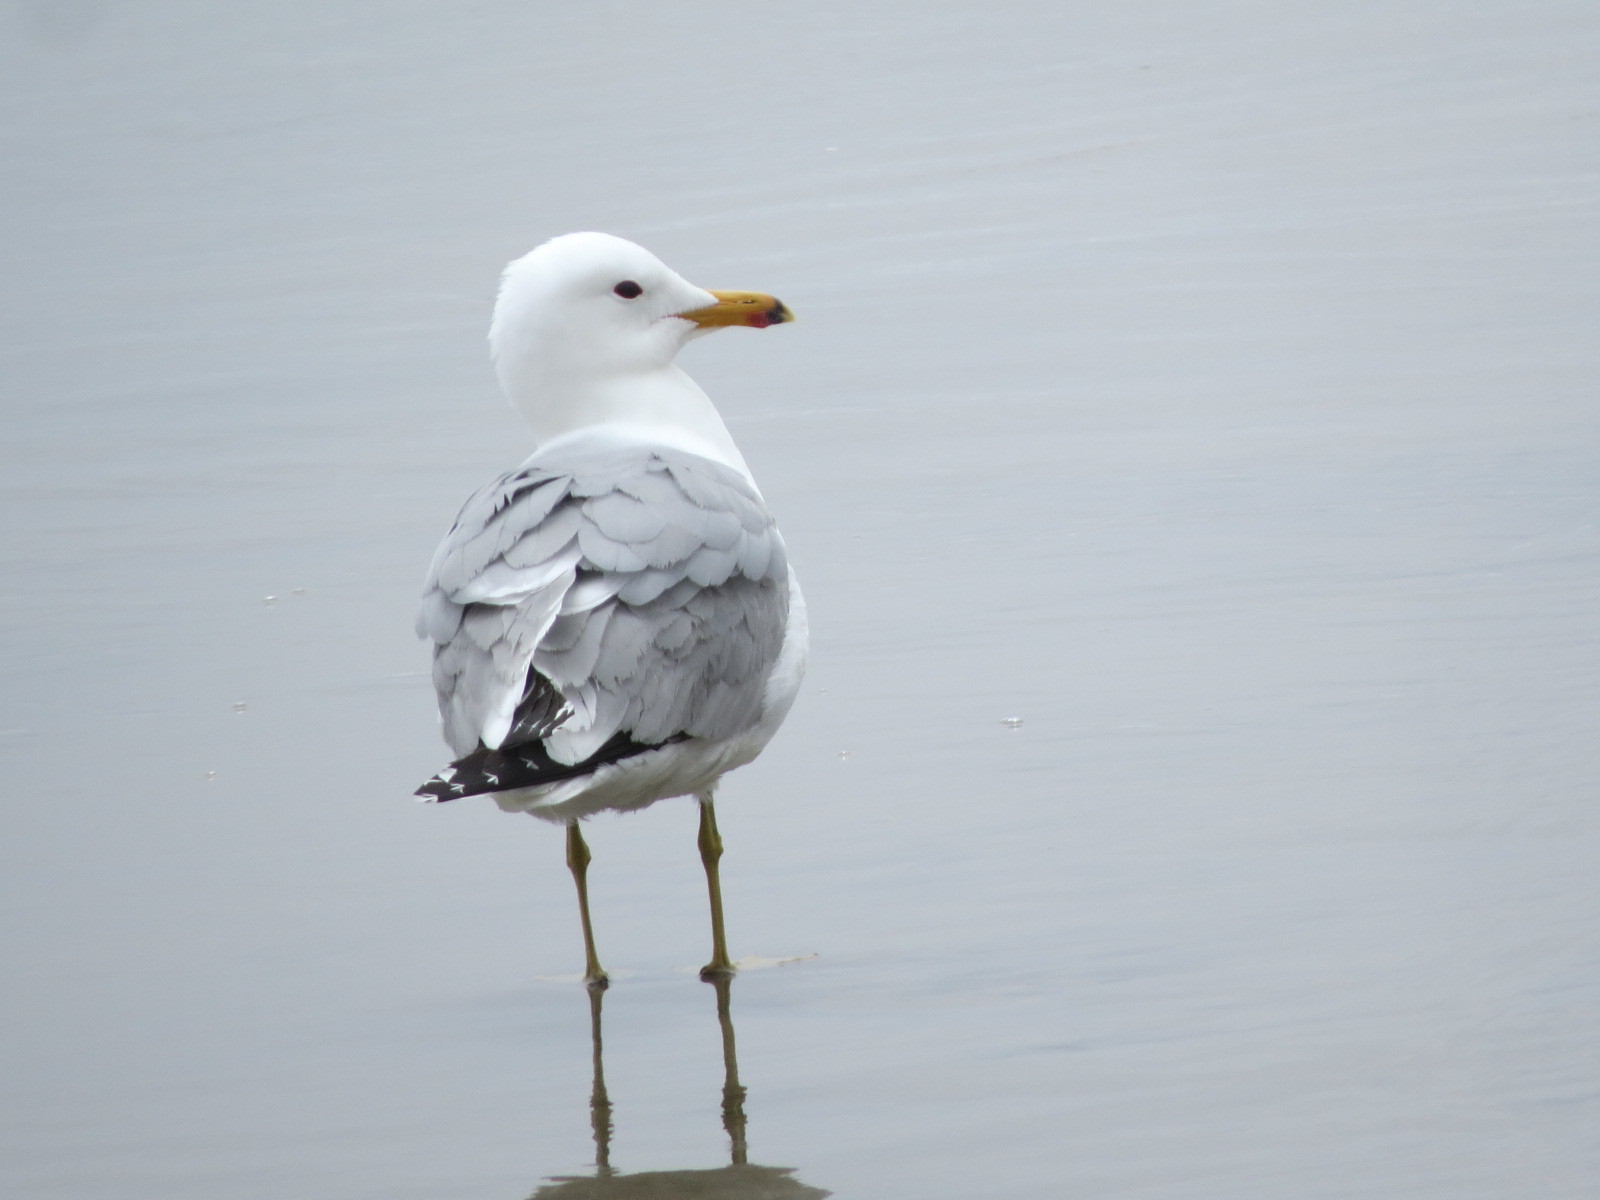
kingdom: Animalia
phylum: Chordata
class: Aves
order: Charadriiformes
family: Laridae
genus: Larus
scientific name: Larus californicus
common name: California gull
